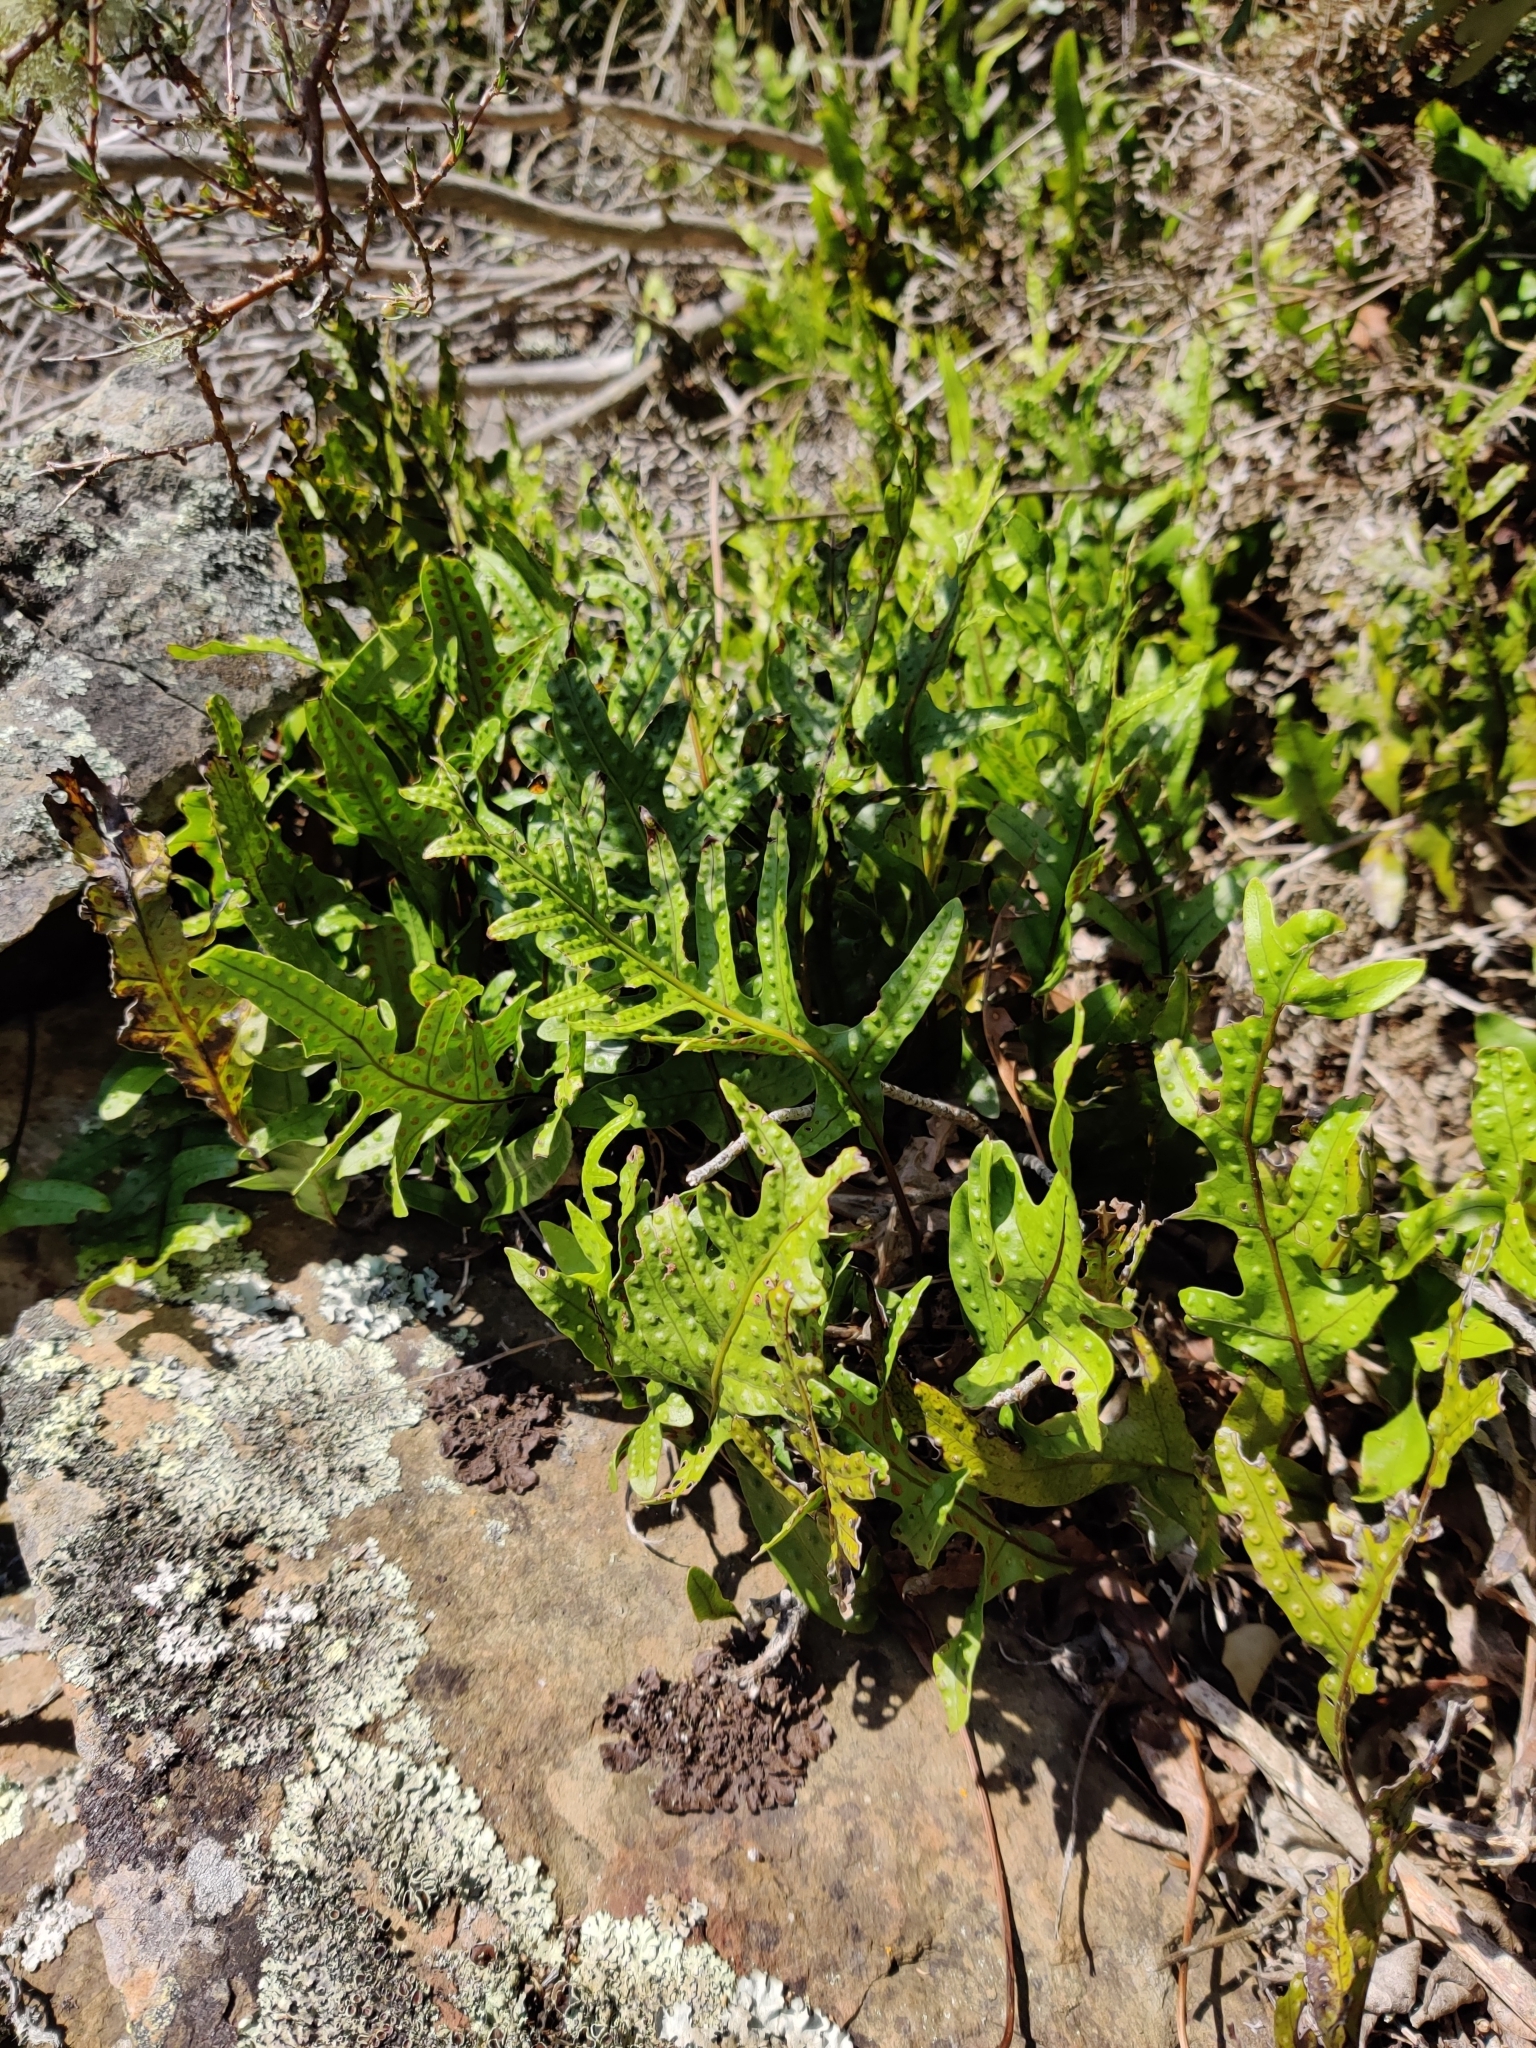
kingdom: Plantae
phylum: Tracheophyta
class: Polypodiopsida
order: Polypodiales
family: Polypodiaceae
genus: Lecanopteris
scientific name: Lecanopteris pustulata
